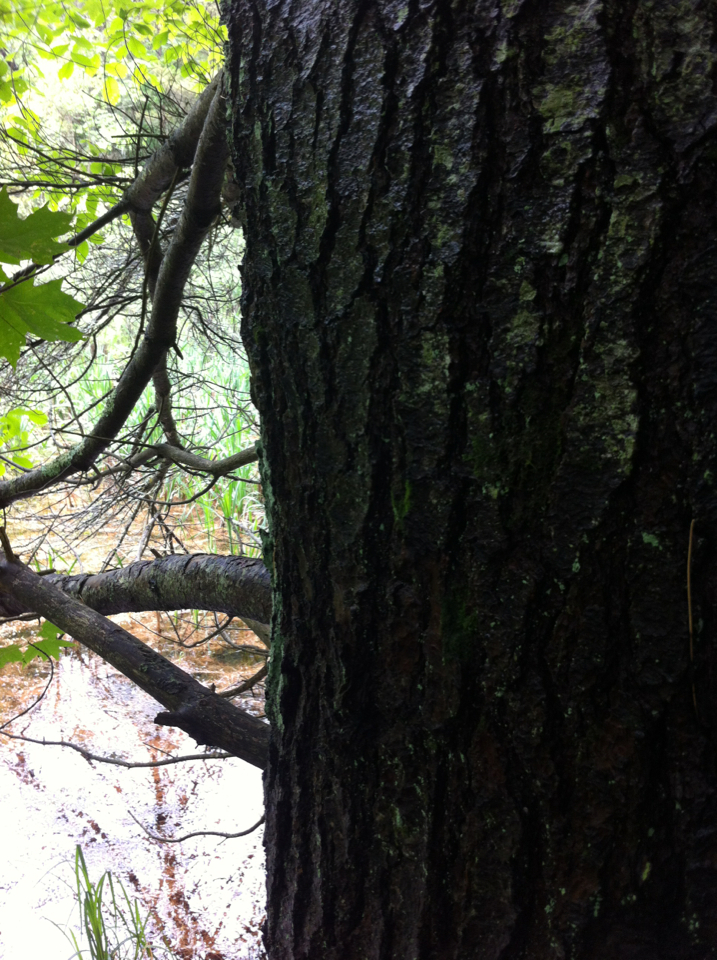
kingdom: Plantae
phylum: Tracheophyta
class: Pinopsida
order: Pinales
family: Pinaceae
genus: Pinus
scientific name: Pinus strobus
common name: Weymouth pine
